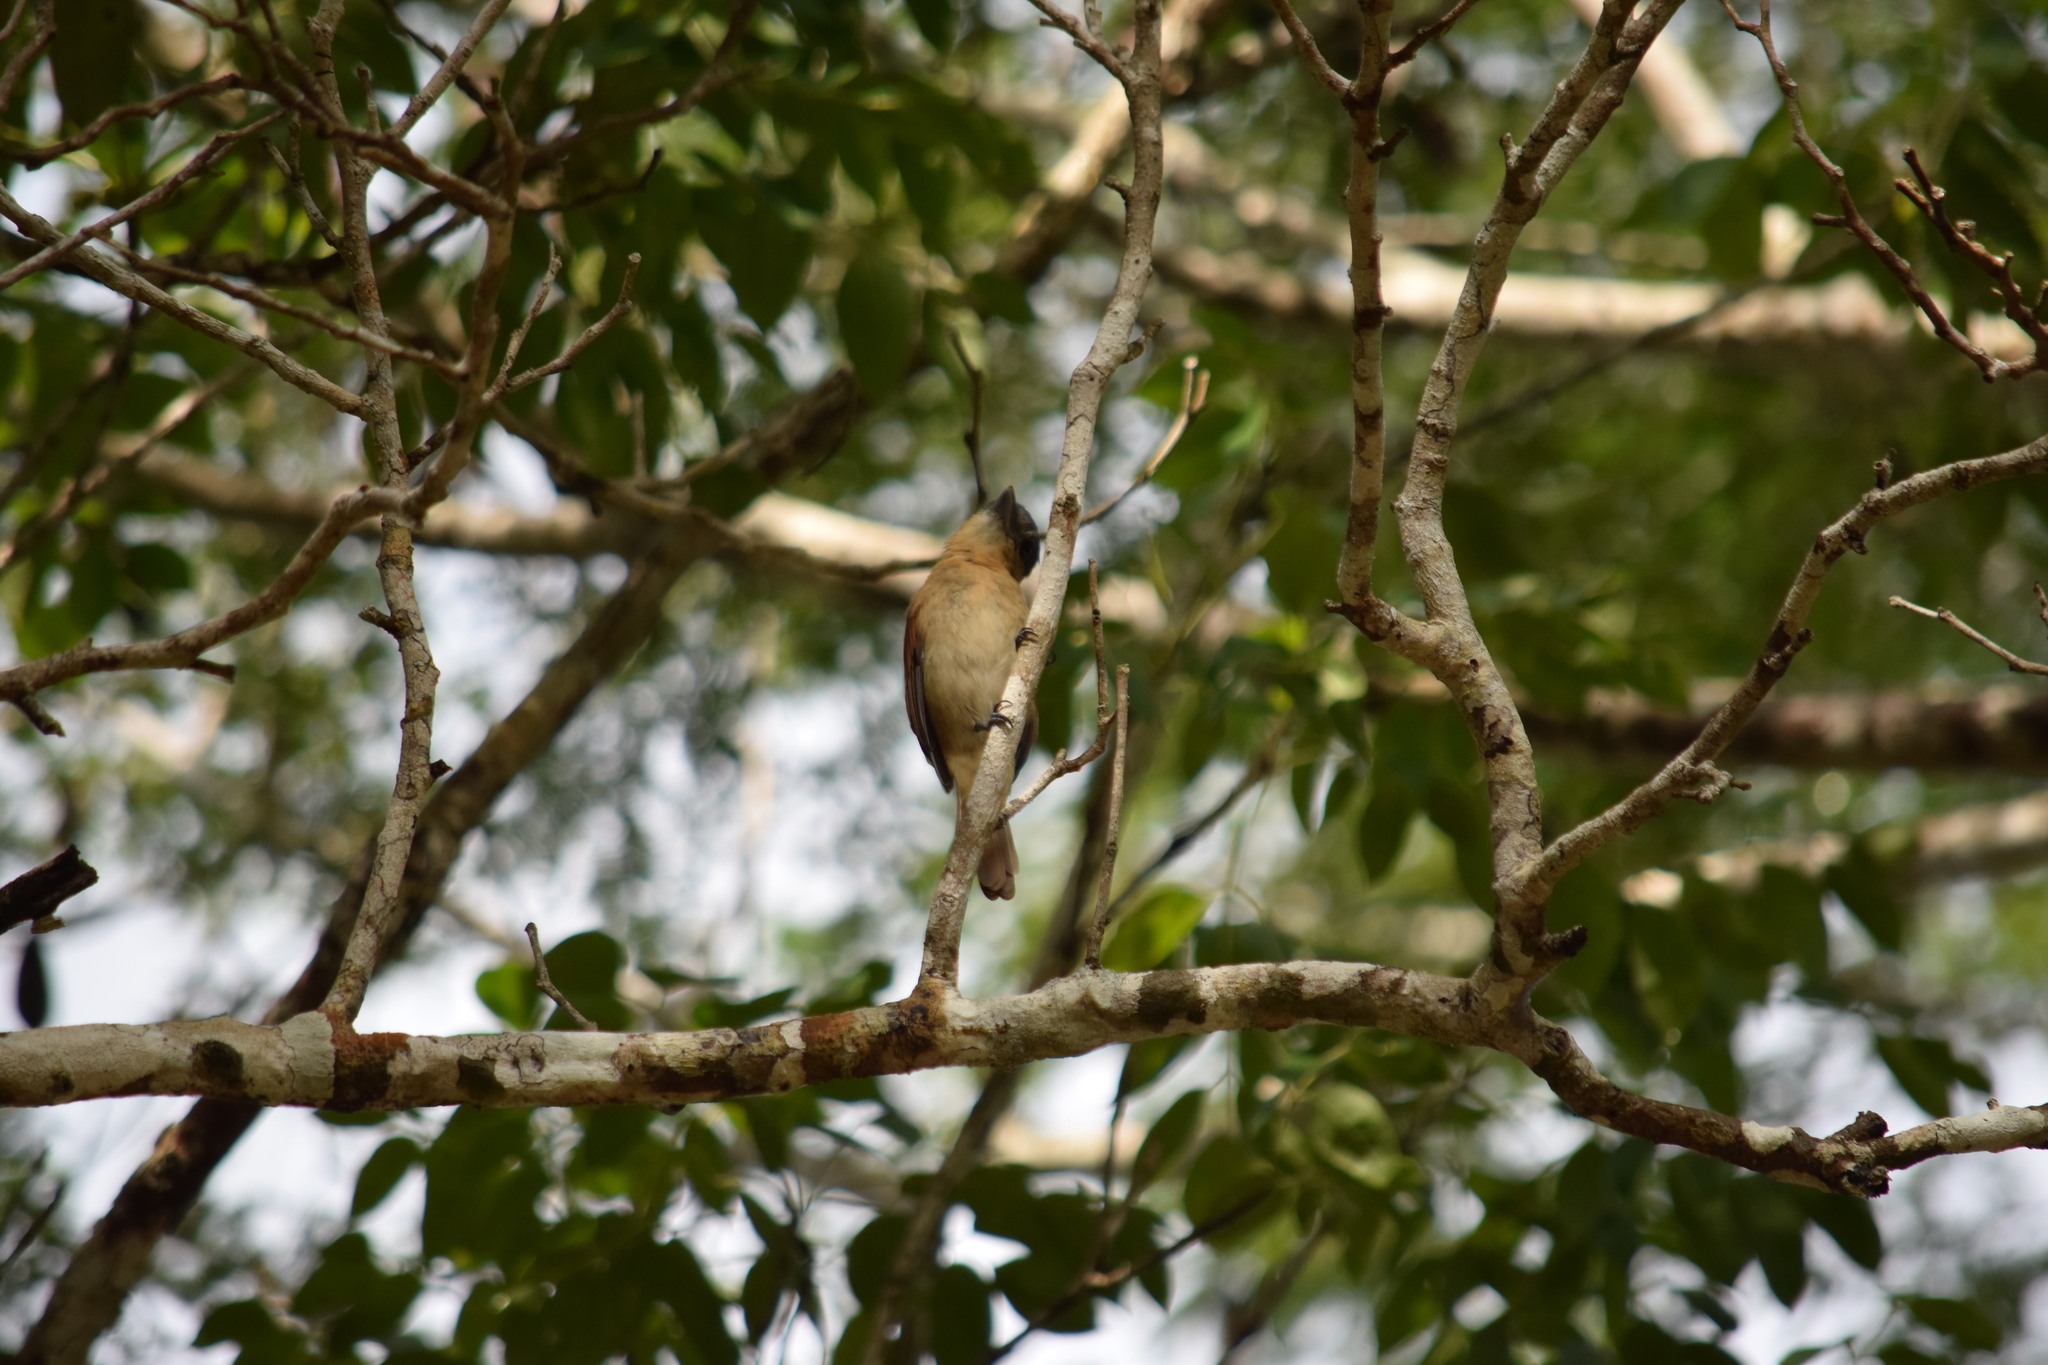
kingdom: Animalia
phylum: Chordata
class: Aves
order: Passeriformes
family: Cotingidae
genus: Pachyramphus
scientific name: Pachyramphus aglaiae
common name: Rose-throated becard
